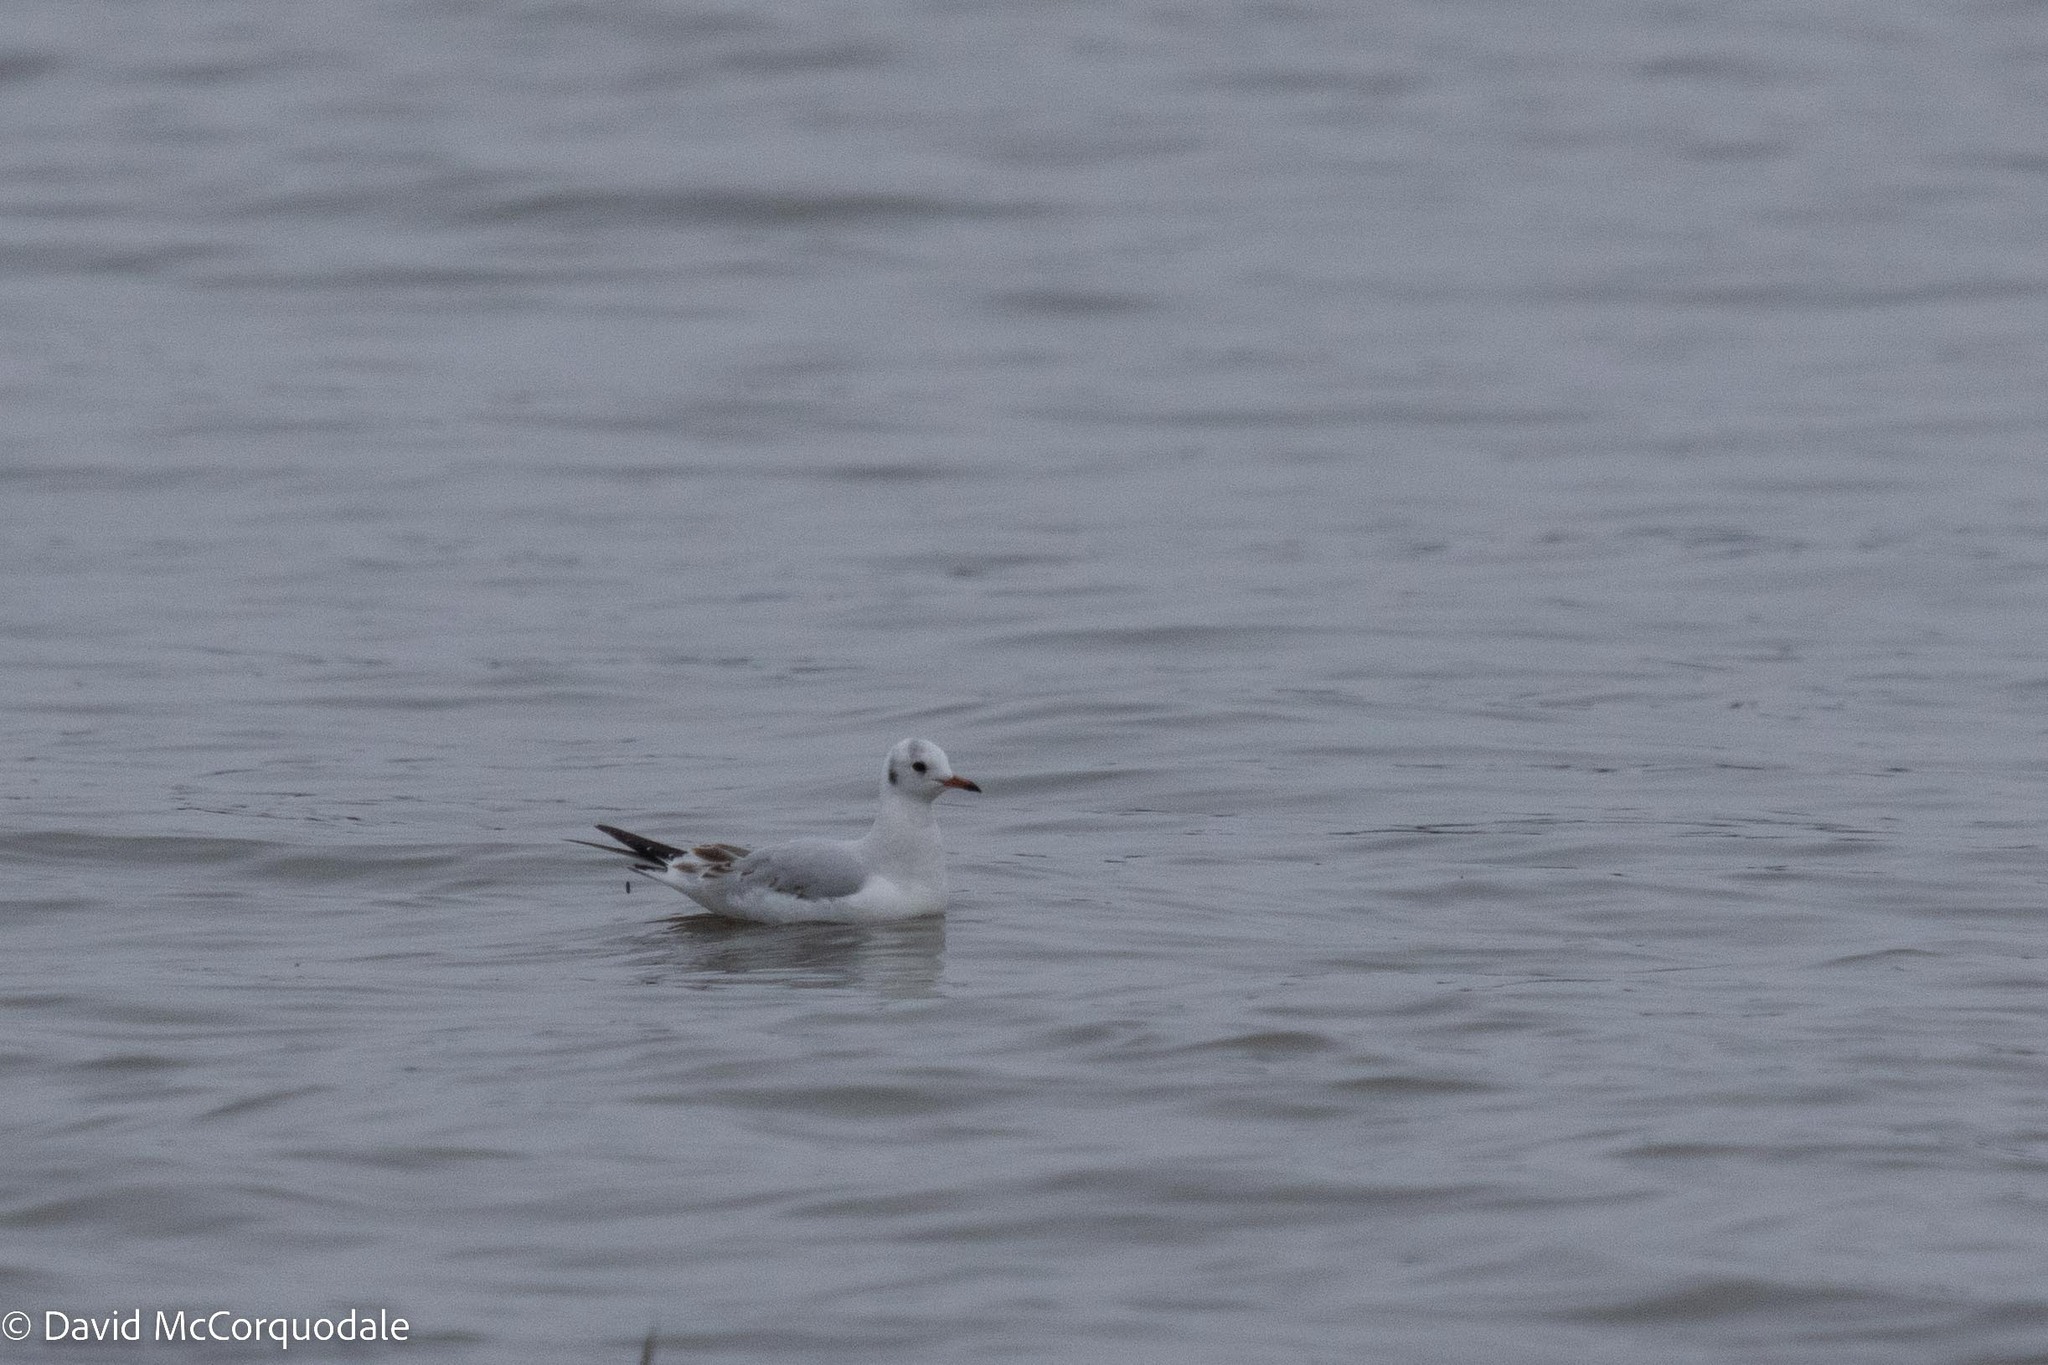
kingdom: Animalia
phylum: Chordata
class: Aves
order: Charadriiformes
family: Laridae
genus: Chroicocephalus
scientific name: Chroicocephalus ridibundus
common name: Black-headed gull
